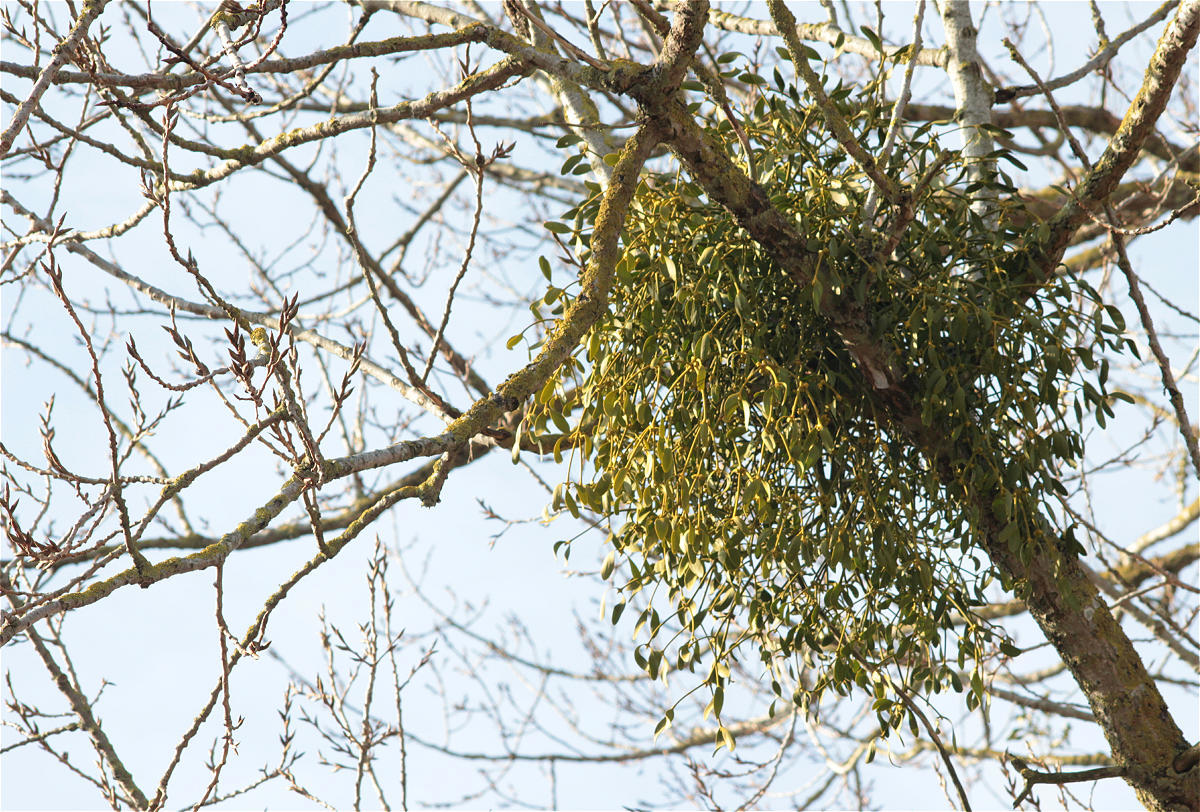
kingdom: Plantae
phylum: Tracheophyta
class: Magnoliopsida
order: Santalales
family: Viscaceae
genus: Viscum
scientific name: Viscum album
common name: Mistletoe
